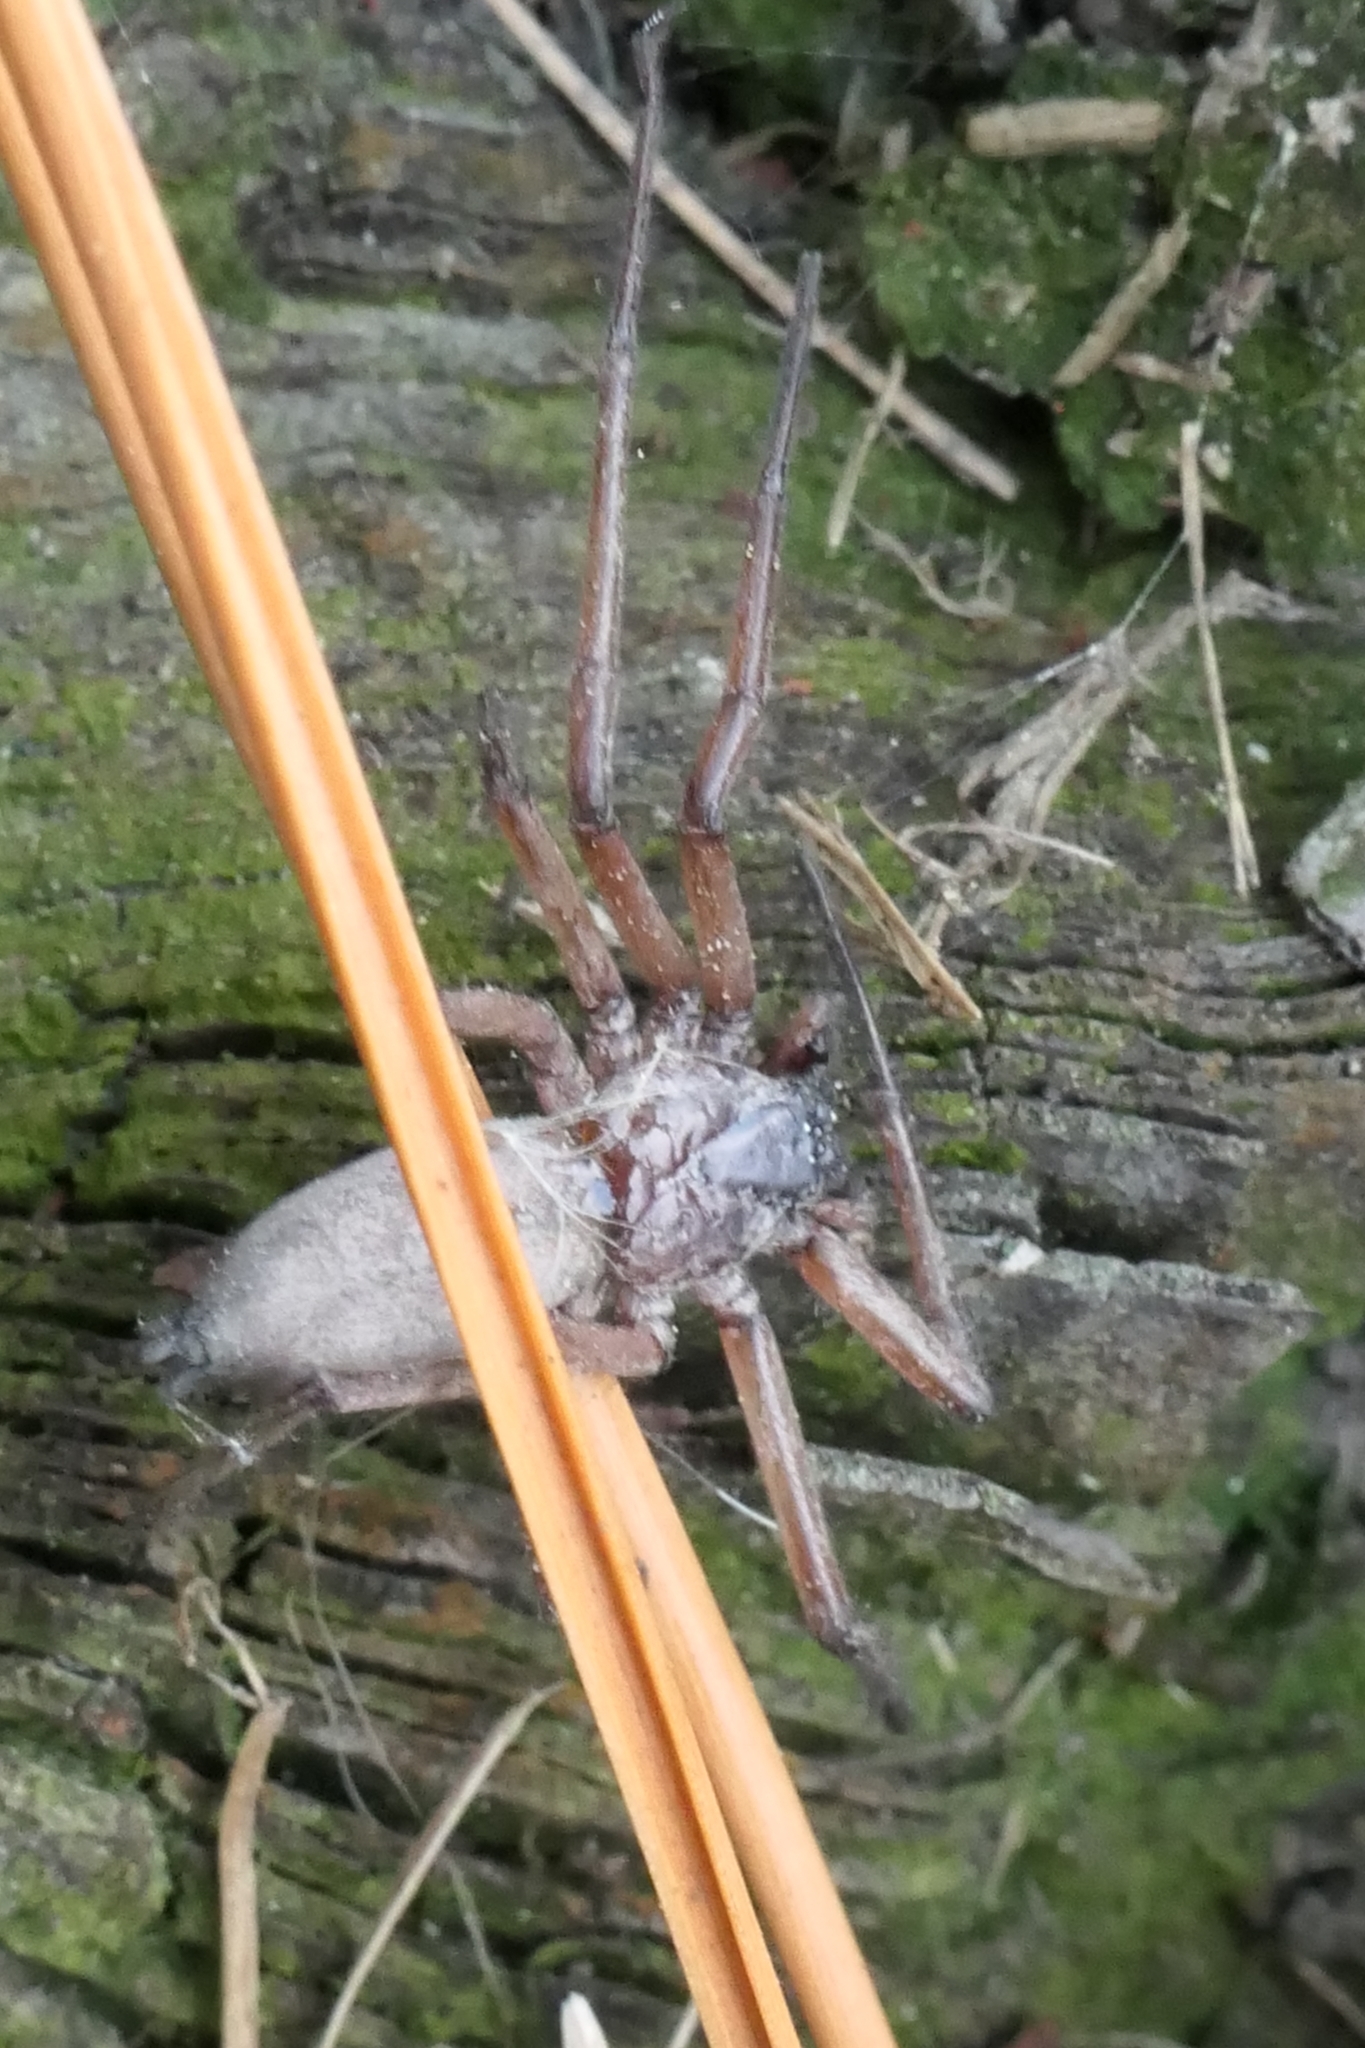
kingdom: Animalia
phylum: Arthropoda
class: Arachnida
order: Araneae
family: Trochanteriidae
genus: Hemicloea
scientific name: Hemicloea rogenhoferi
